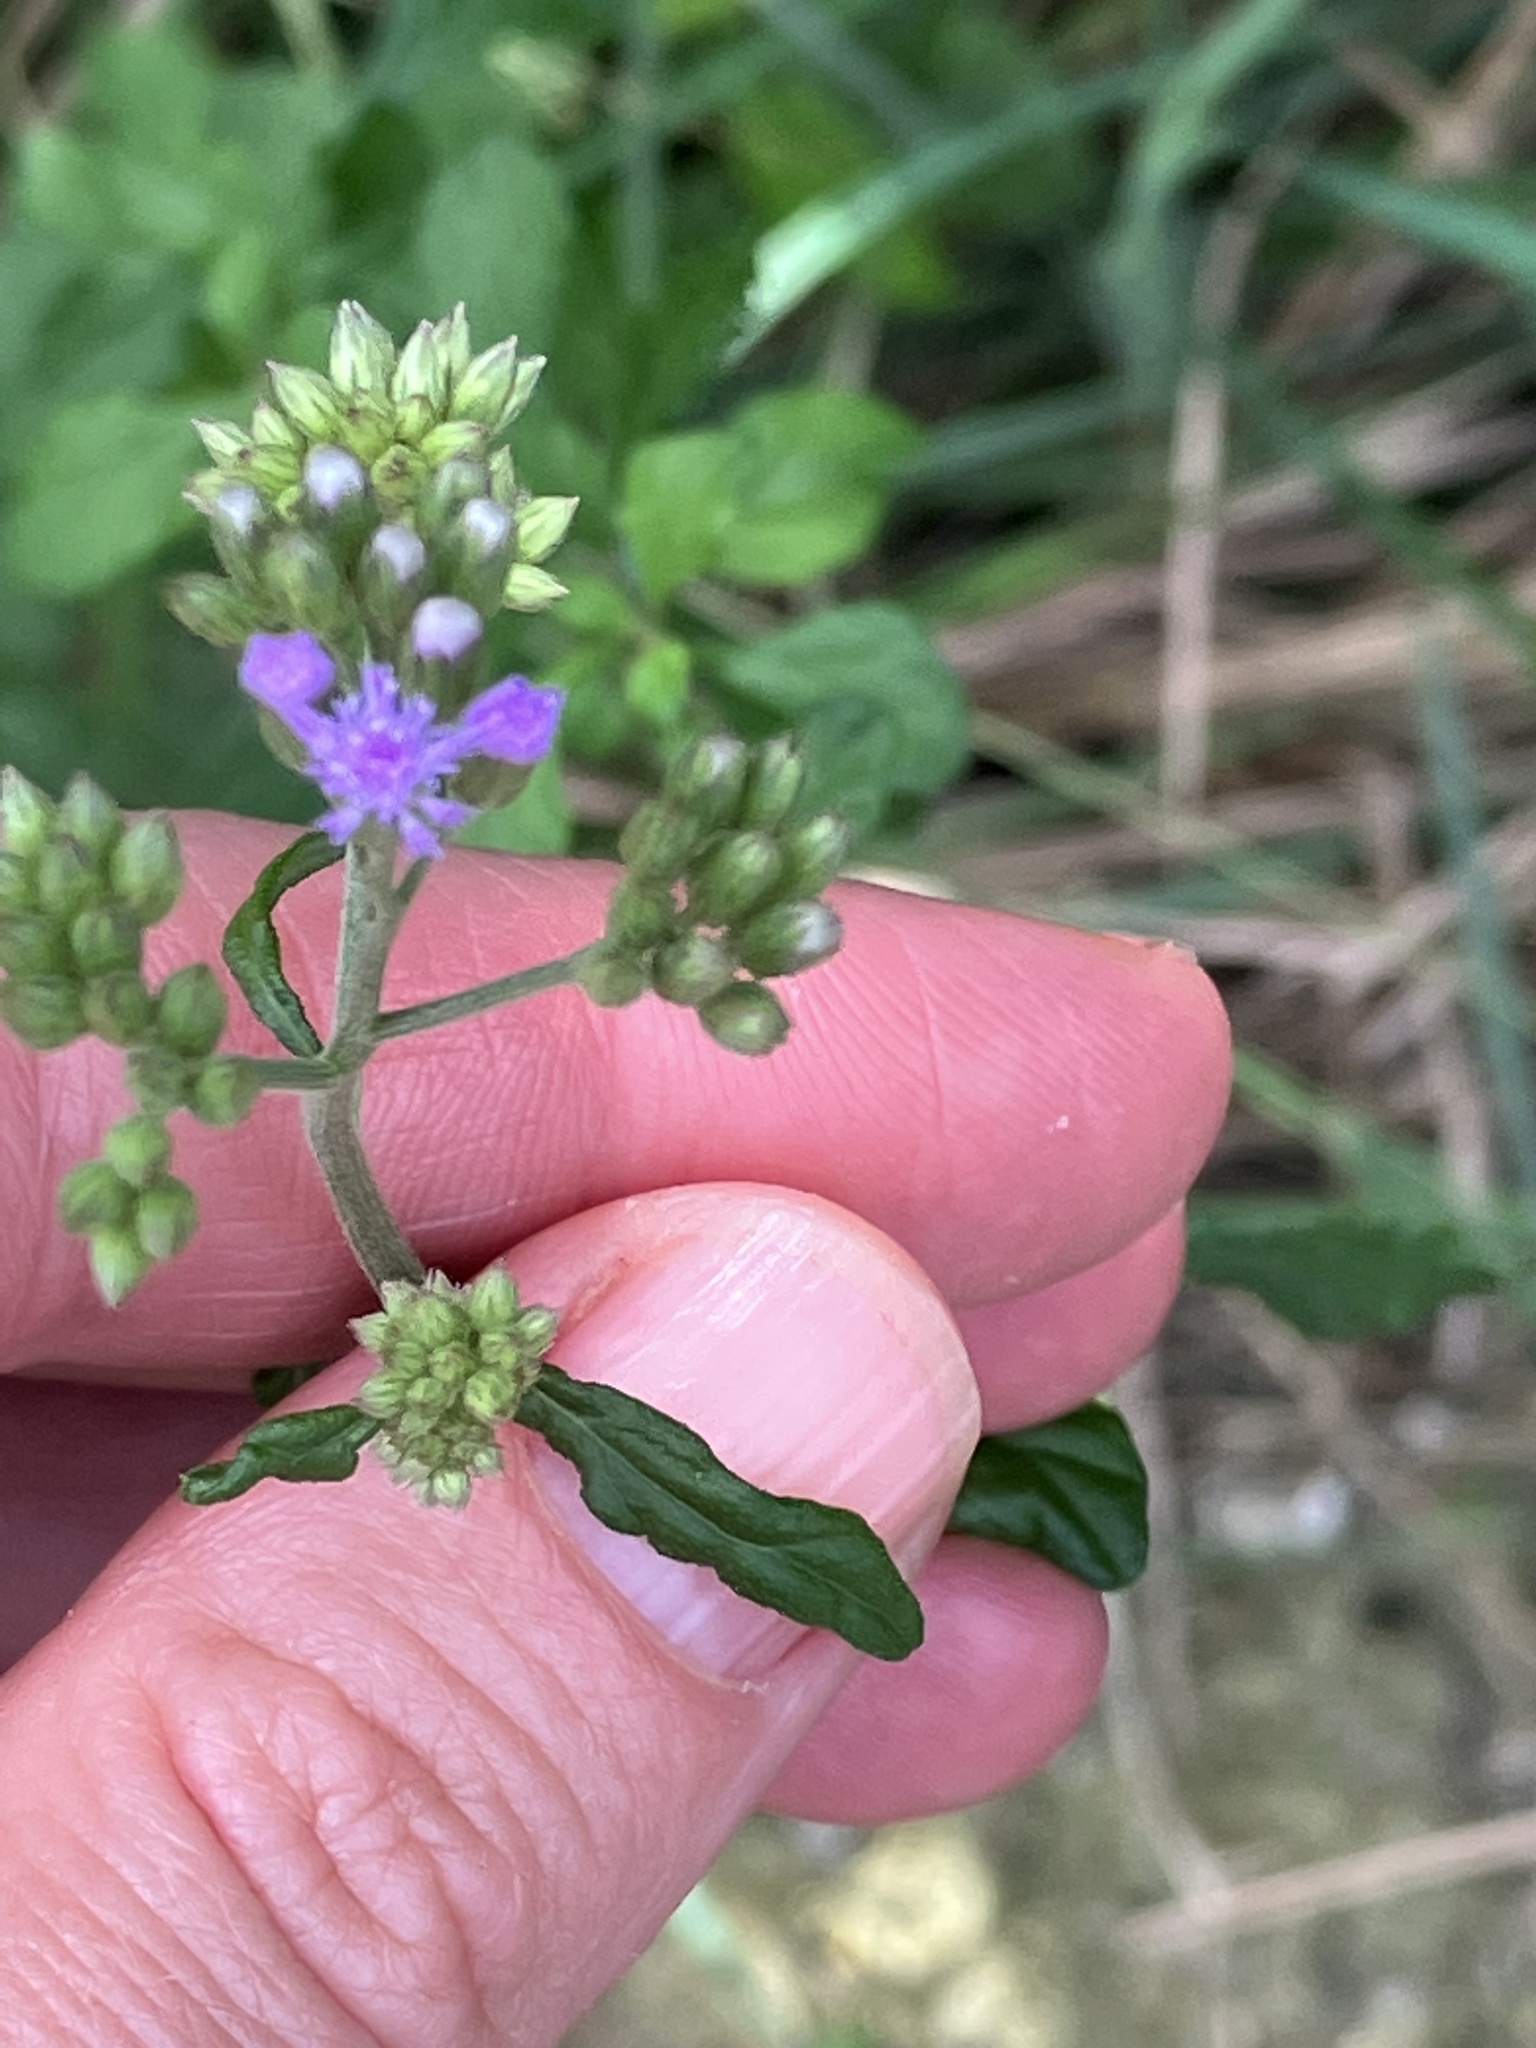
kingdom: Plantae
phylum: Tracheophyta
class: Magnoliopsida
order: Asterales
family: Asteraceae
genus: Cyanthillium
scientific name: Cyanthillium cinereum
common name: Little ironweed
